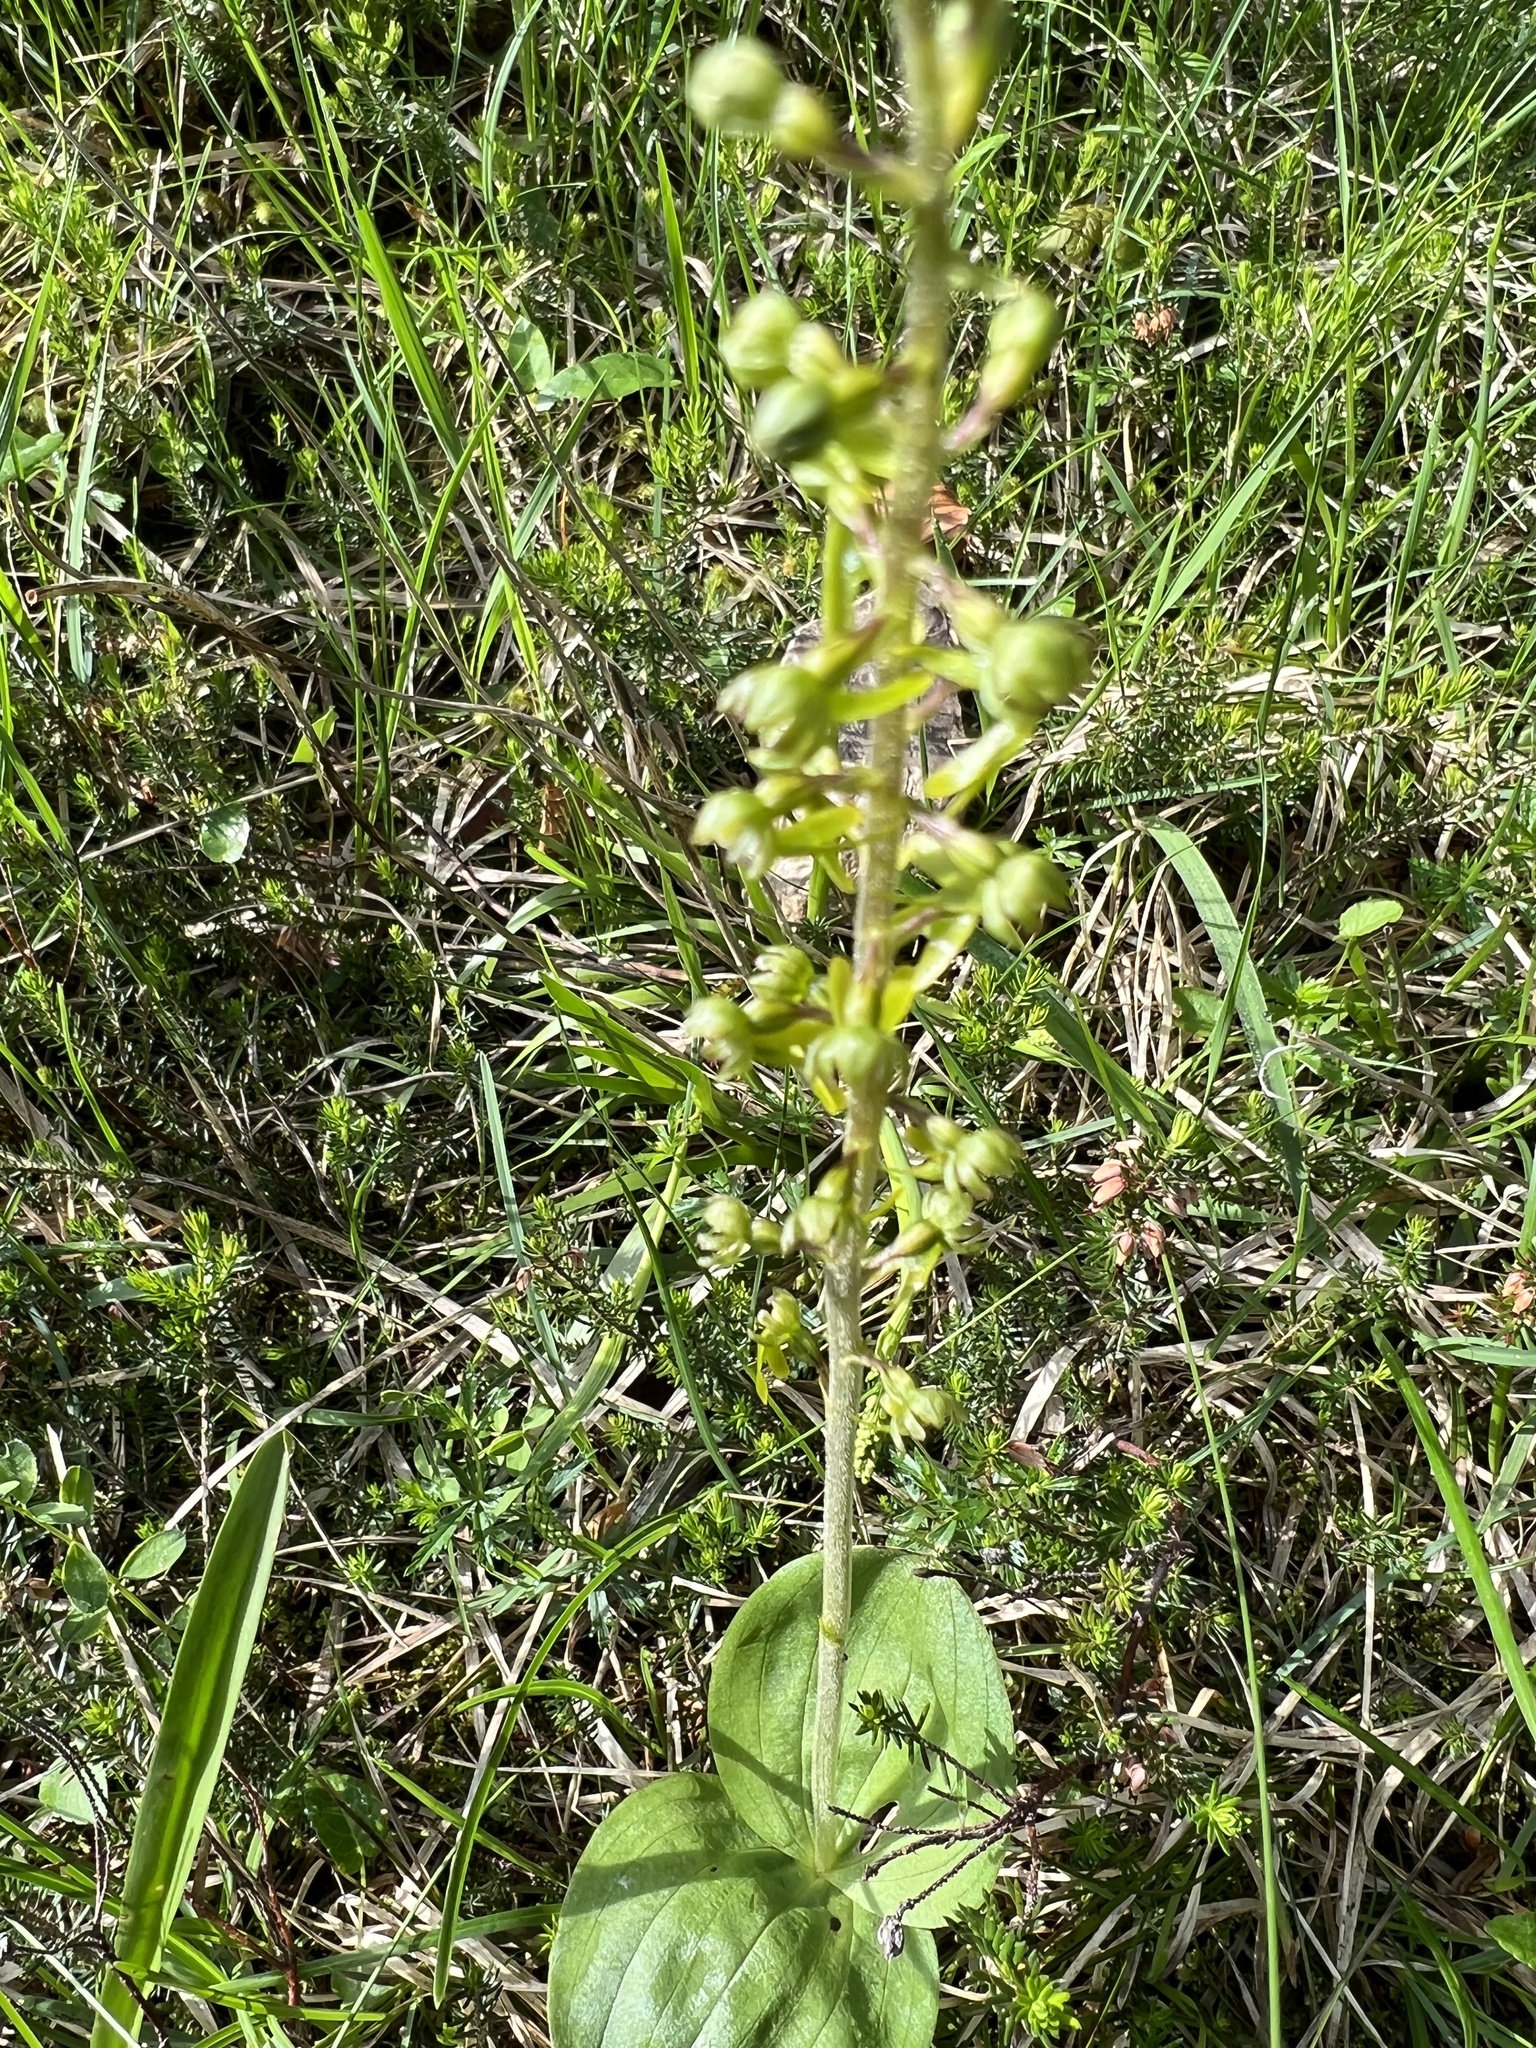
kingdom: Plantae
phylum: Tracheophyta
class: Liliopsida
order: Asparagales
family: Orchidaceae
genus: Neottia
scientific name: Neottia ovata
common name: Common twayblade
